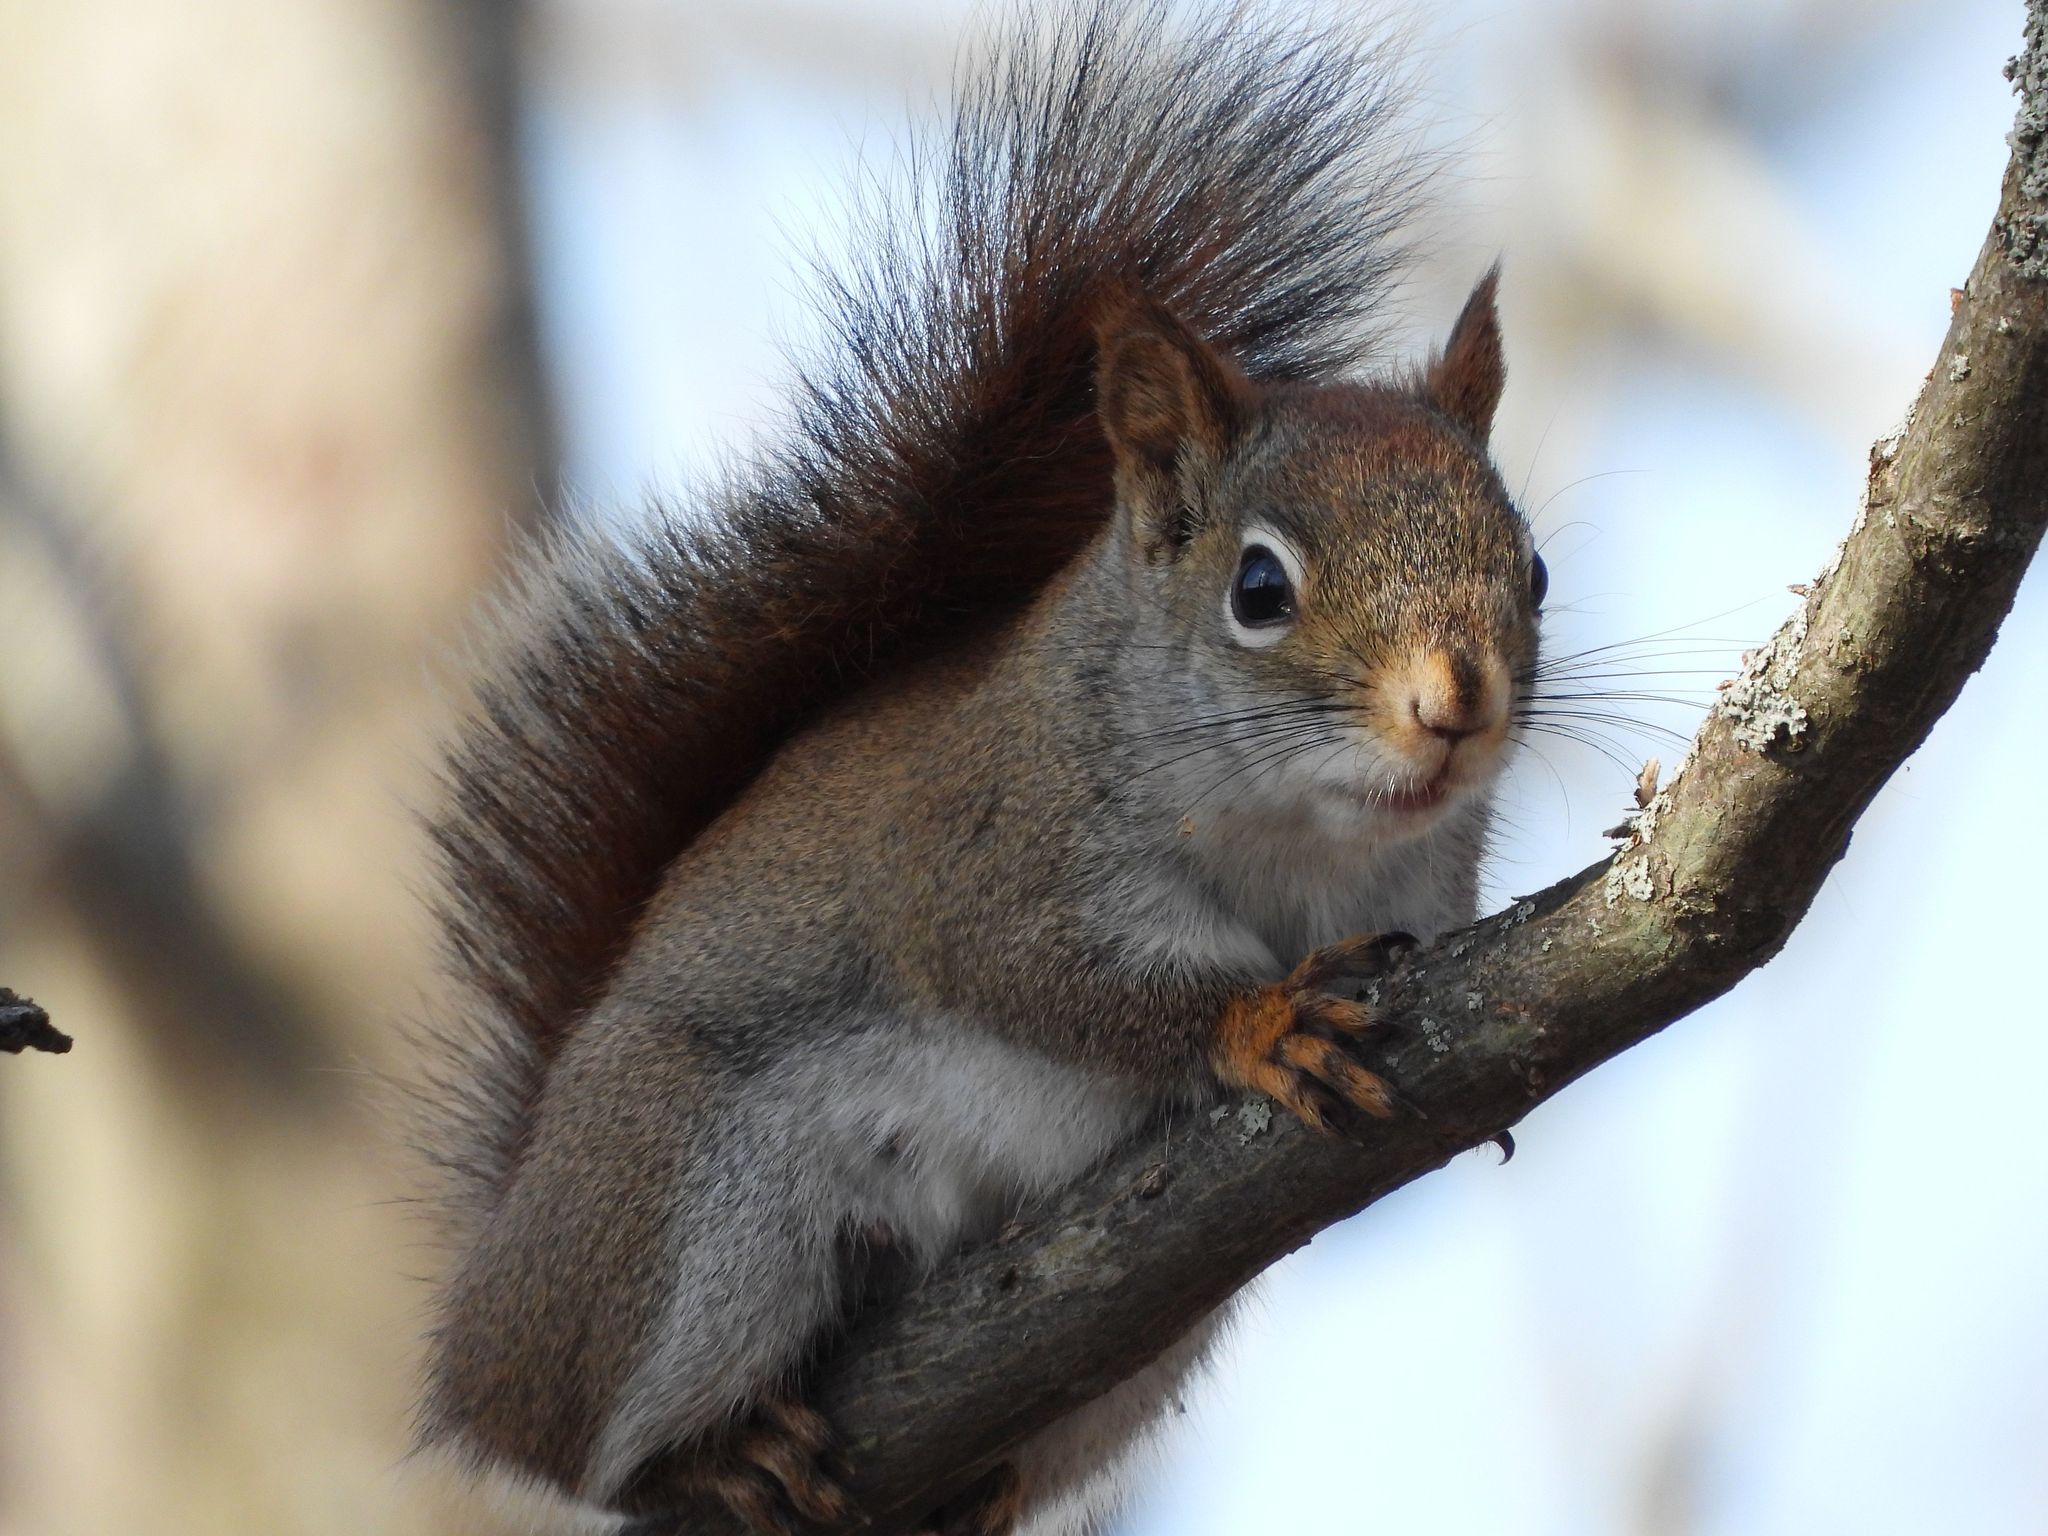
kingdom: Animalia
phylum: Chordata
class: Mammalia
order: Rodentia
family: Sciuridae
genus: Tamiasciurus
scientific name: Tamiasciurus hudsonicus
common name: Red squirrel
